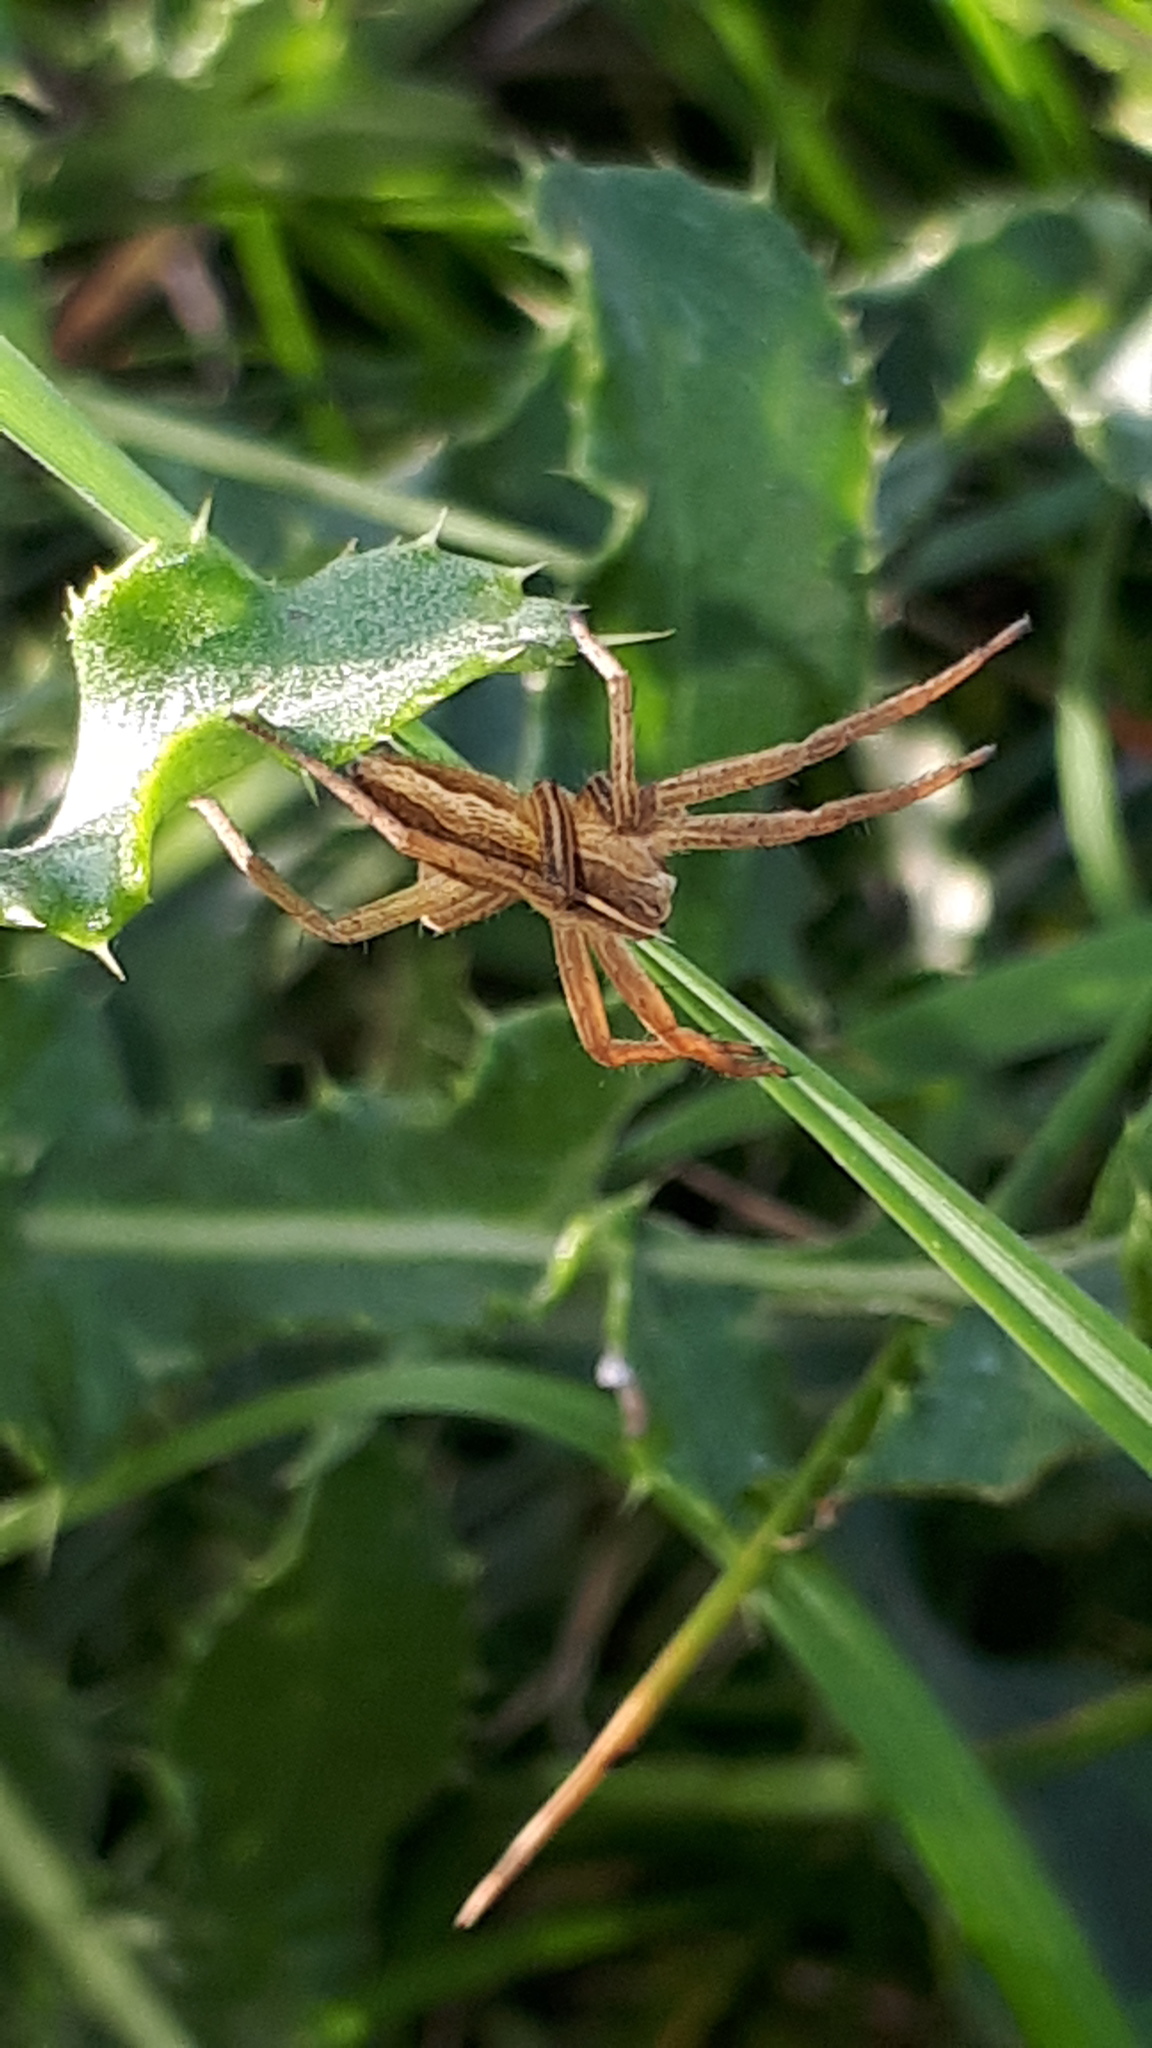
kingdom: Animalia
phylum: Arthropoda
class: Arachnida
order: Araneae
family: Pisauridae
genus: Pisaura
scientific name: Pisaura mirabilis
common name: Tent spider
